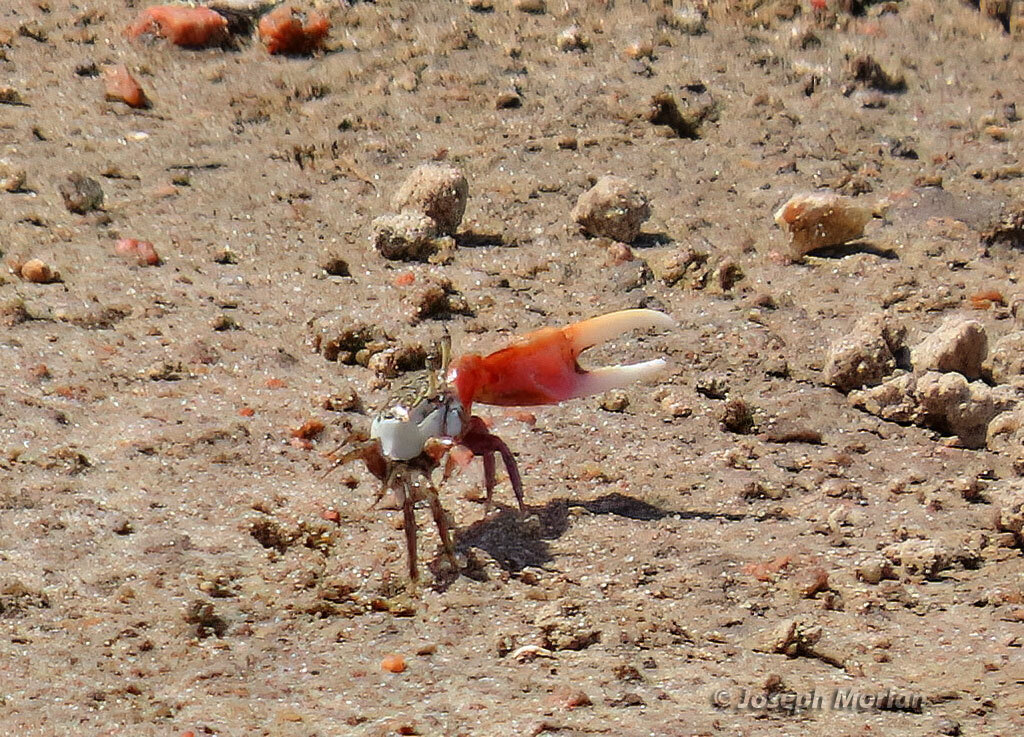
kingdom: Animalia
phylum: Arthropoda
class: Malacostraca
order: Decapoda
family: Ocypodidae
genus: Leptuca
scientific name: Leptuca uruguayensis
